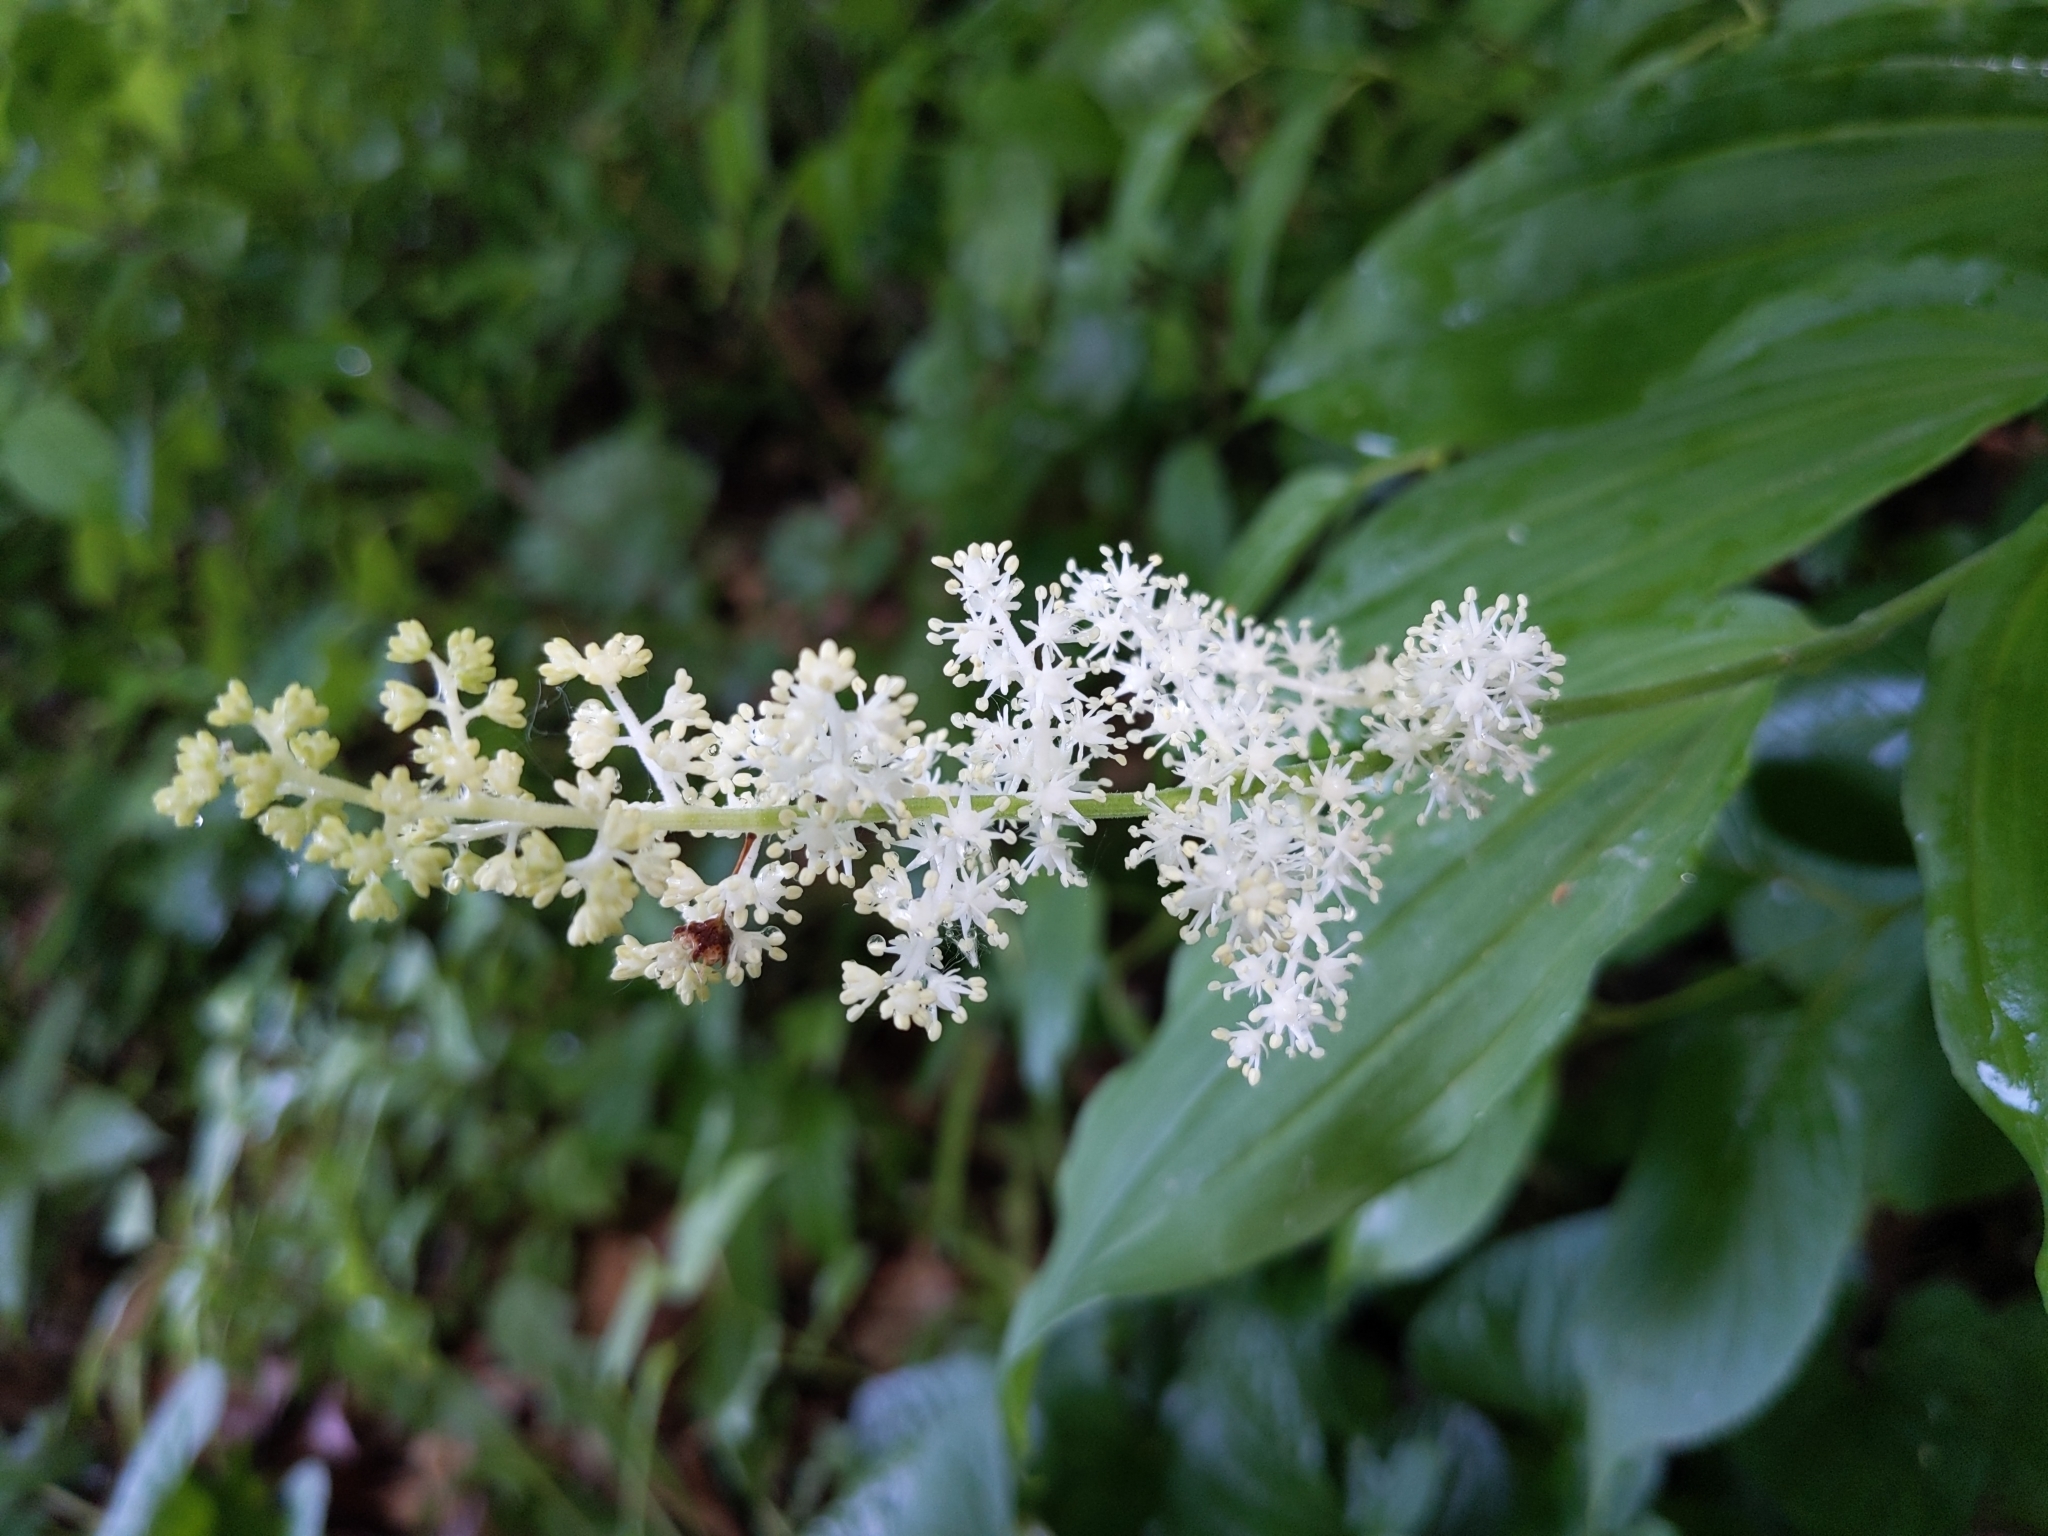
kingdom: Plantae
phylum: Tracheophyta
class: Liliopsida
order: Asparagales
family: Asparagaceae
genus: Maianthemum
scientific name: Maianthemum racemosum
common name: False spikenard
